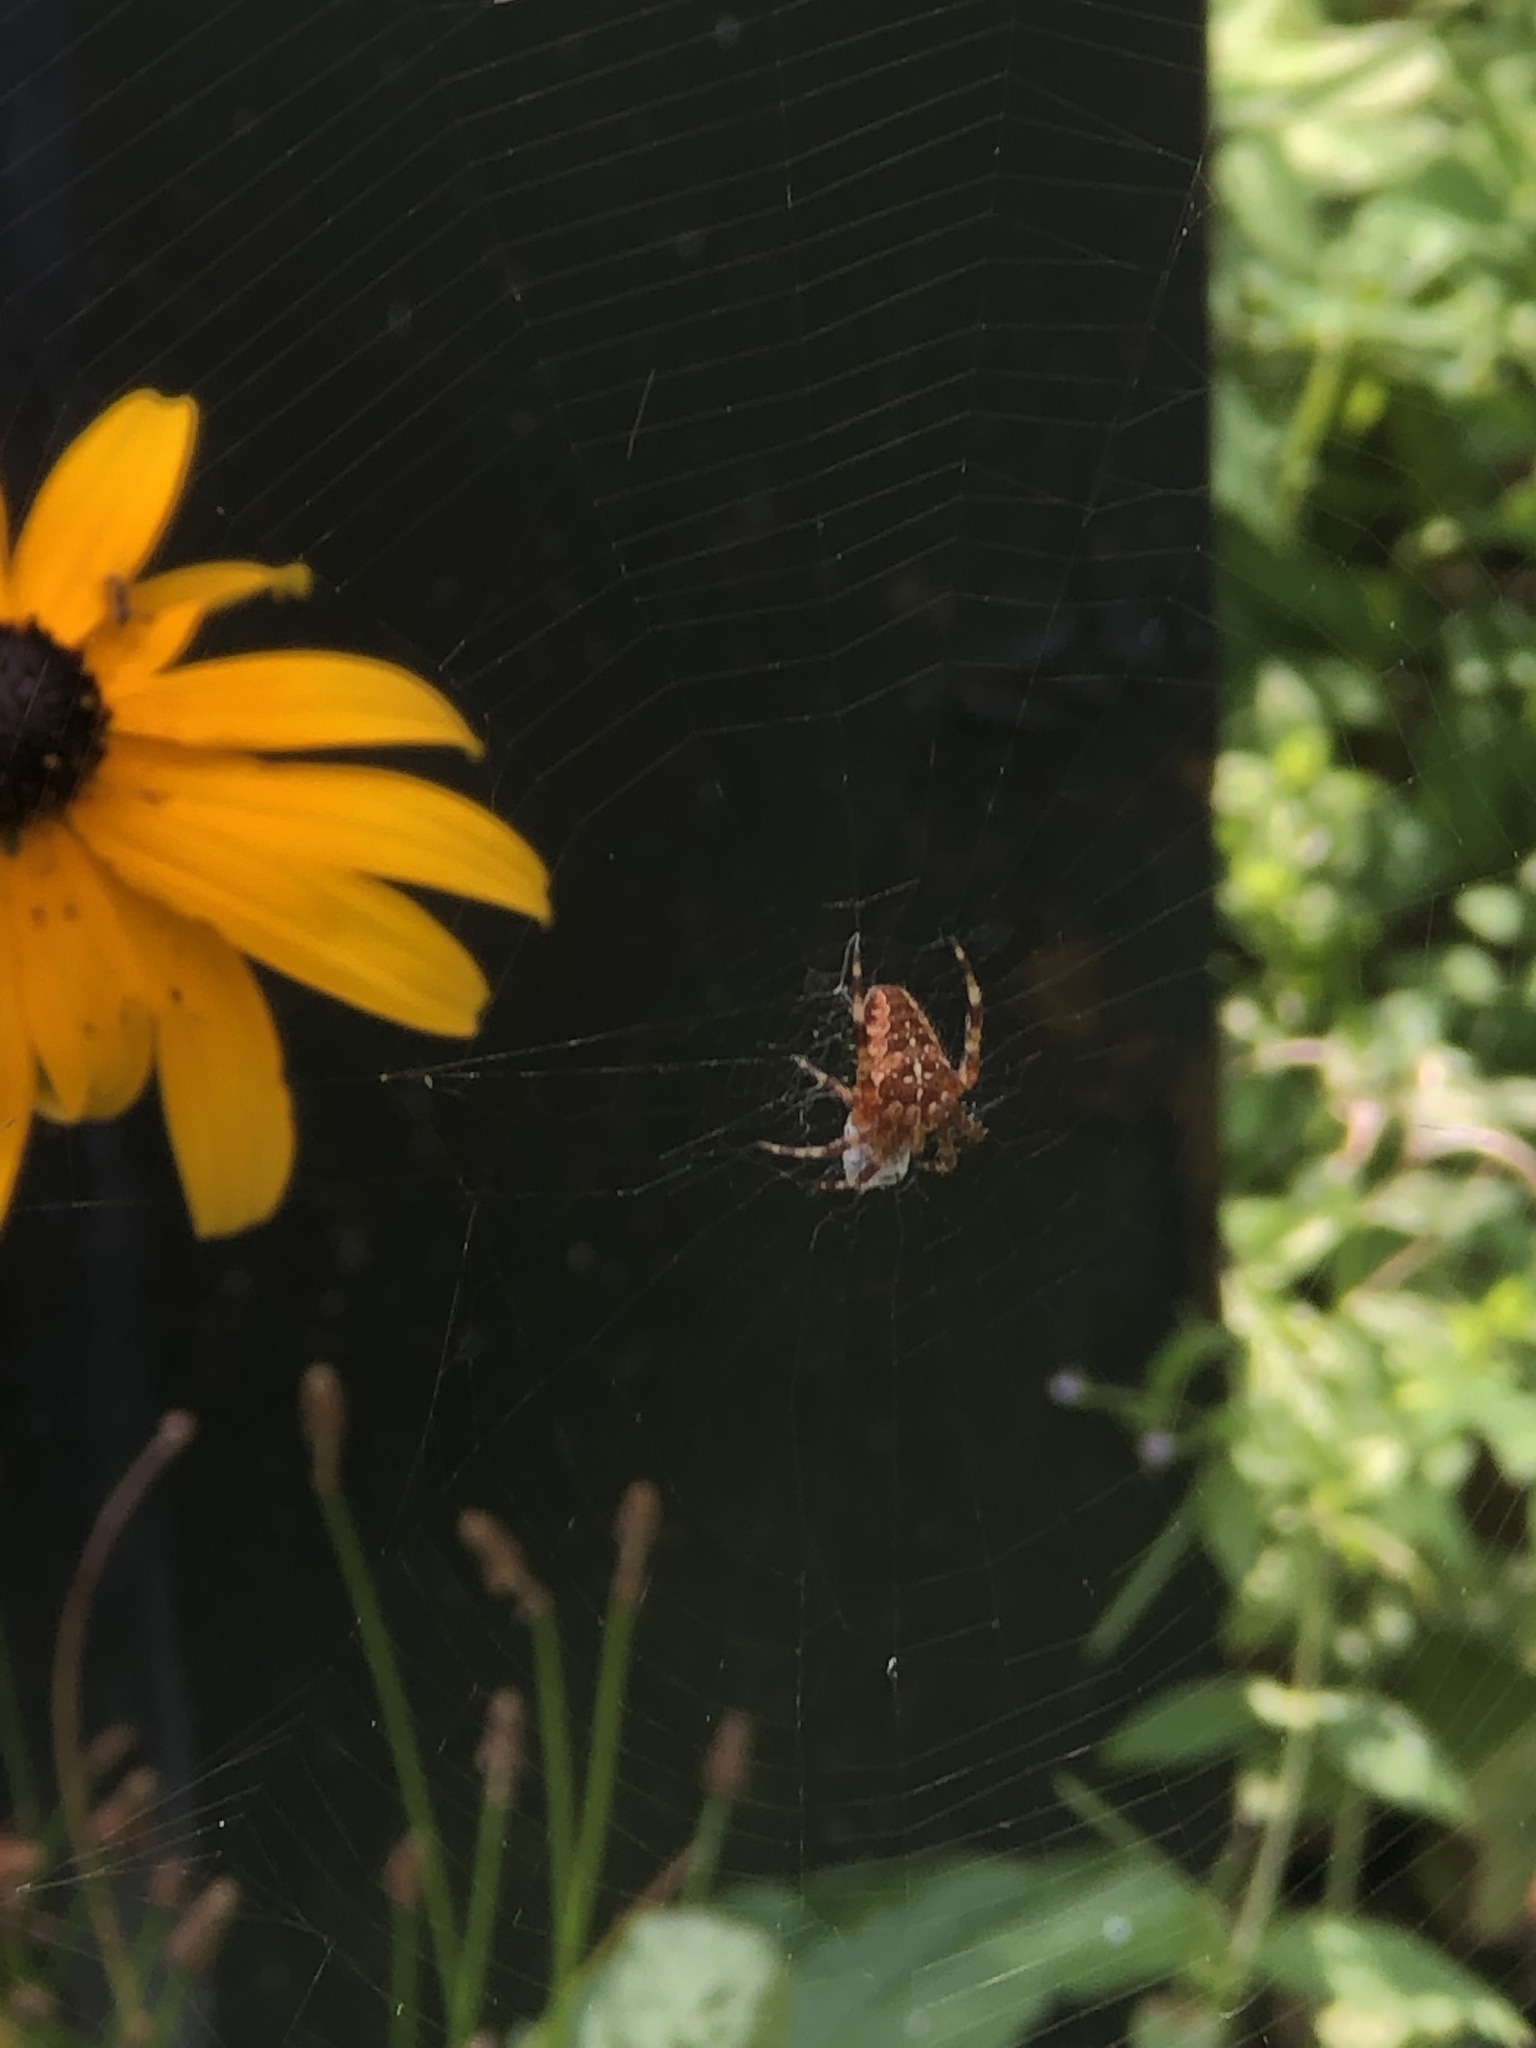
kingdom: Animalia
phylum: Arthropoda
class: Arachnida
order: Araneae
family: Araneidae
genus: Araneus
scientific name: Araneus diadematus
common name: Cross orbweaver
